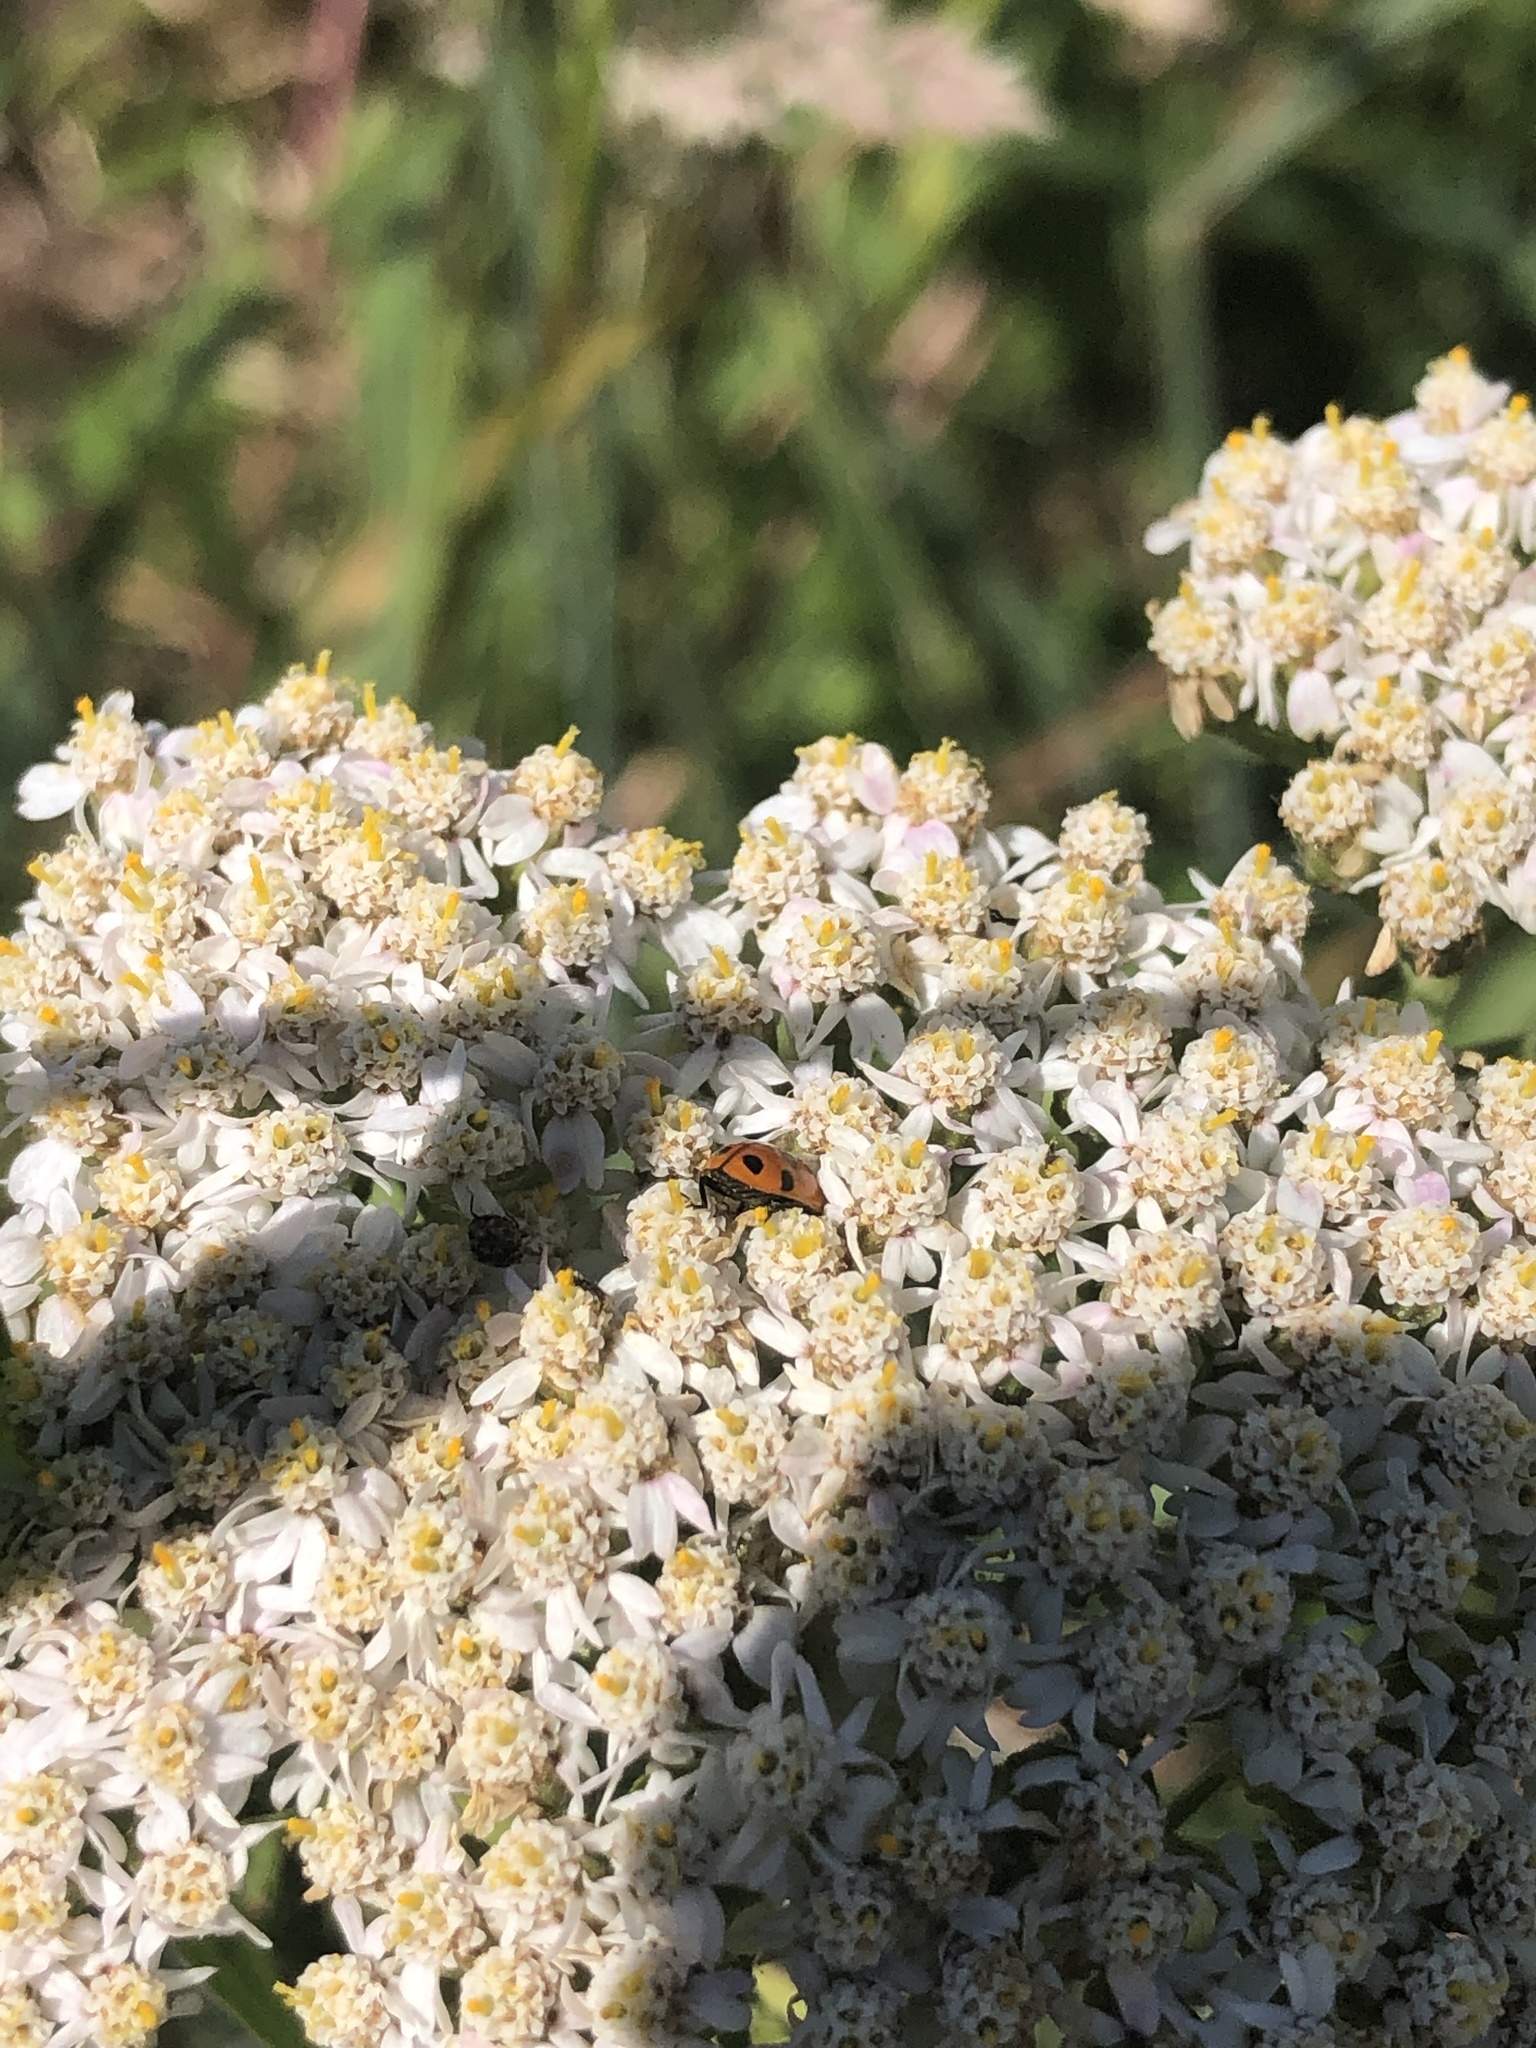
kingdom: Animalia
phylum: Arthropoda
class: Insecta
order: Coleoptera
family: Coccinellidae
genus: Hippodamia
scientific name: Hippodamia variegata
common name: Ladybird beetle
